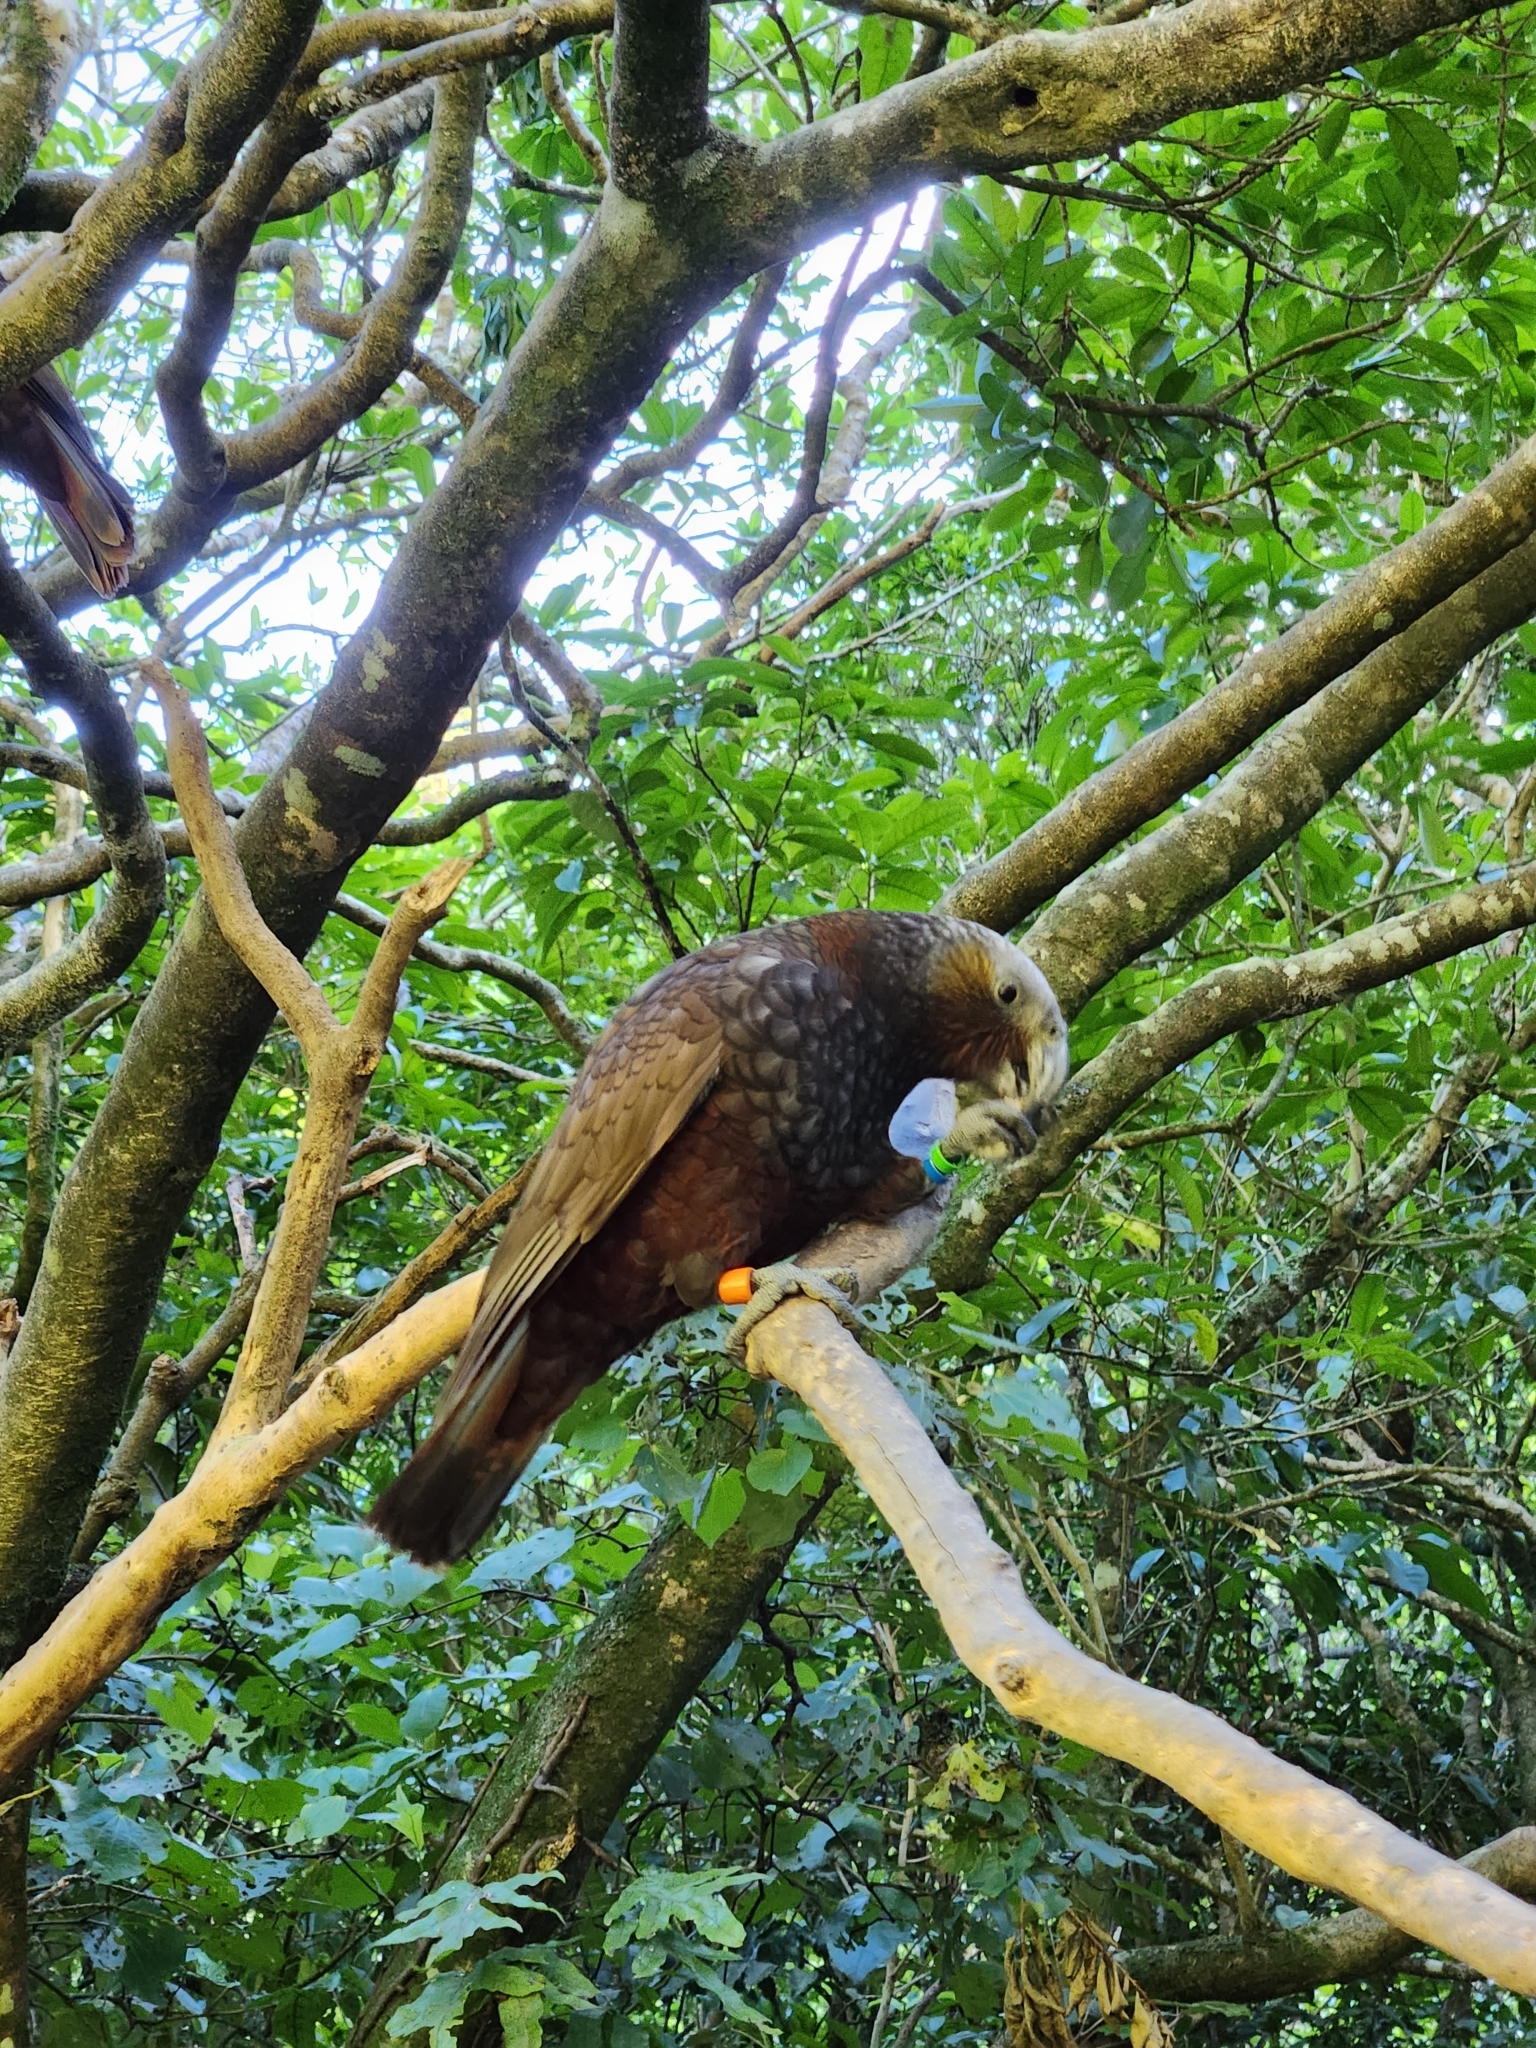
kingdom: Animalia
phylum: Chordata
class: Aves
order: Psittaciformes
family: Psittacidae
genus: Nestor
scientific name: Nestor meridionalis
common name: New zealand kaka
